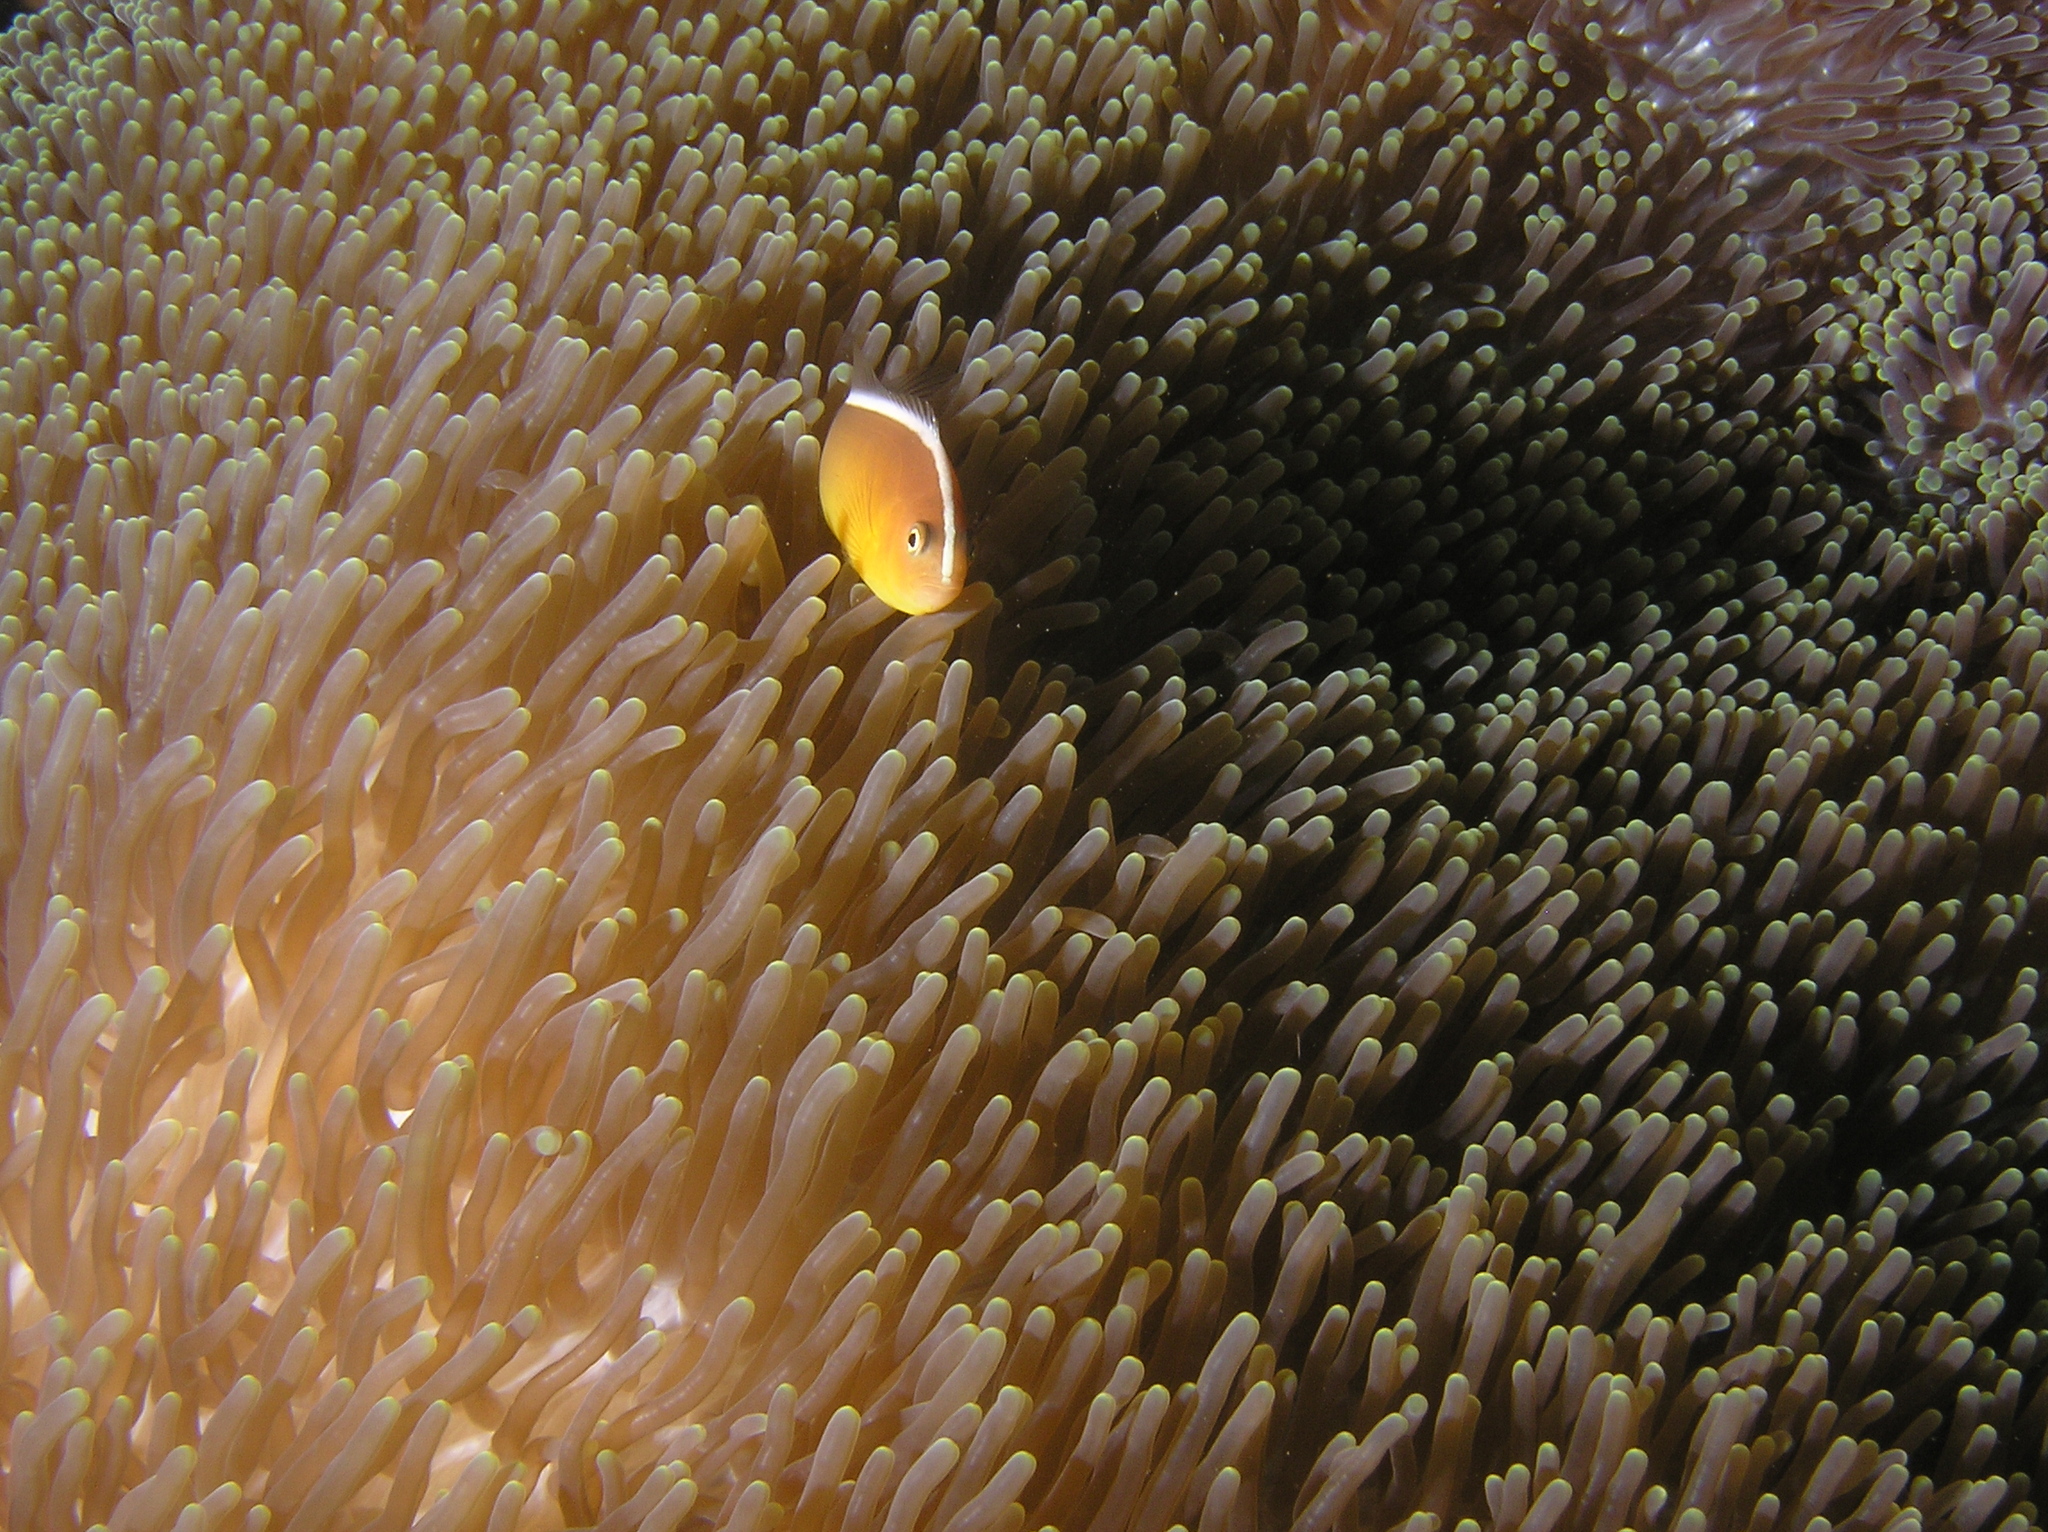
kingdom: Animalia
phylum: Chordata
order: Perciformes
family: Pomacentridae
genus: Amphiprion
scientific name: Amphiprion sandaracinos
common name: Orange anemonefish
